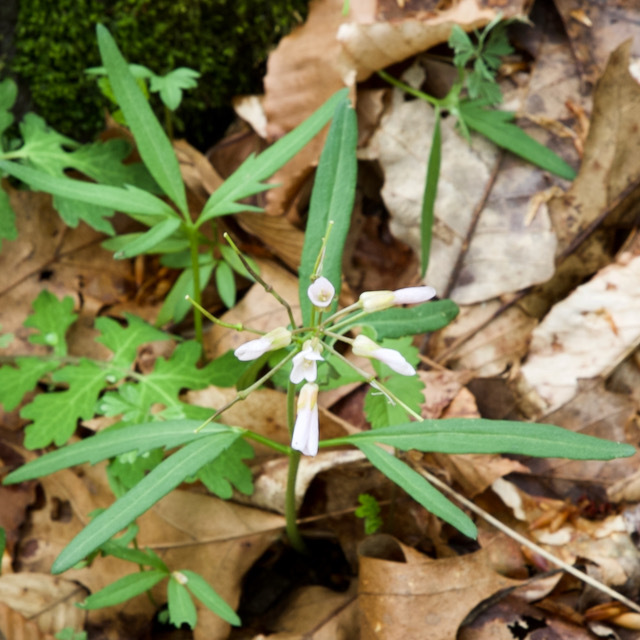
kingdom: Plantae
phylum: Tracheophyta
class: Magnoliopsida
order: Brassicales
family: Brassicaceae
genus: Cardamine
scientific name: Cardamine concatenata
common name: Cut-leaf toothcup
